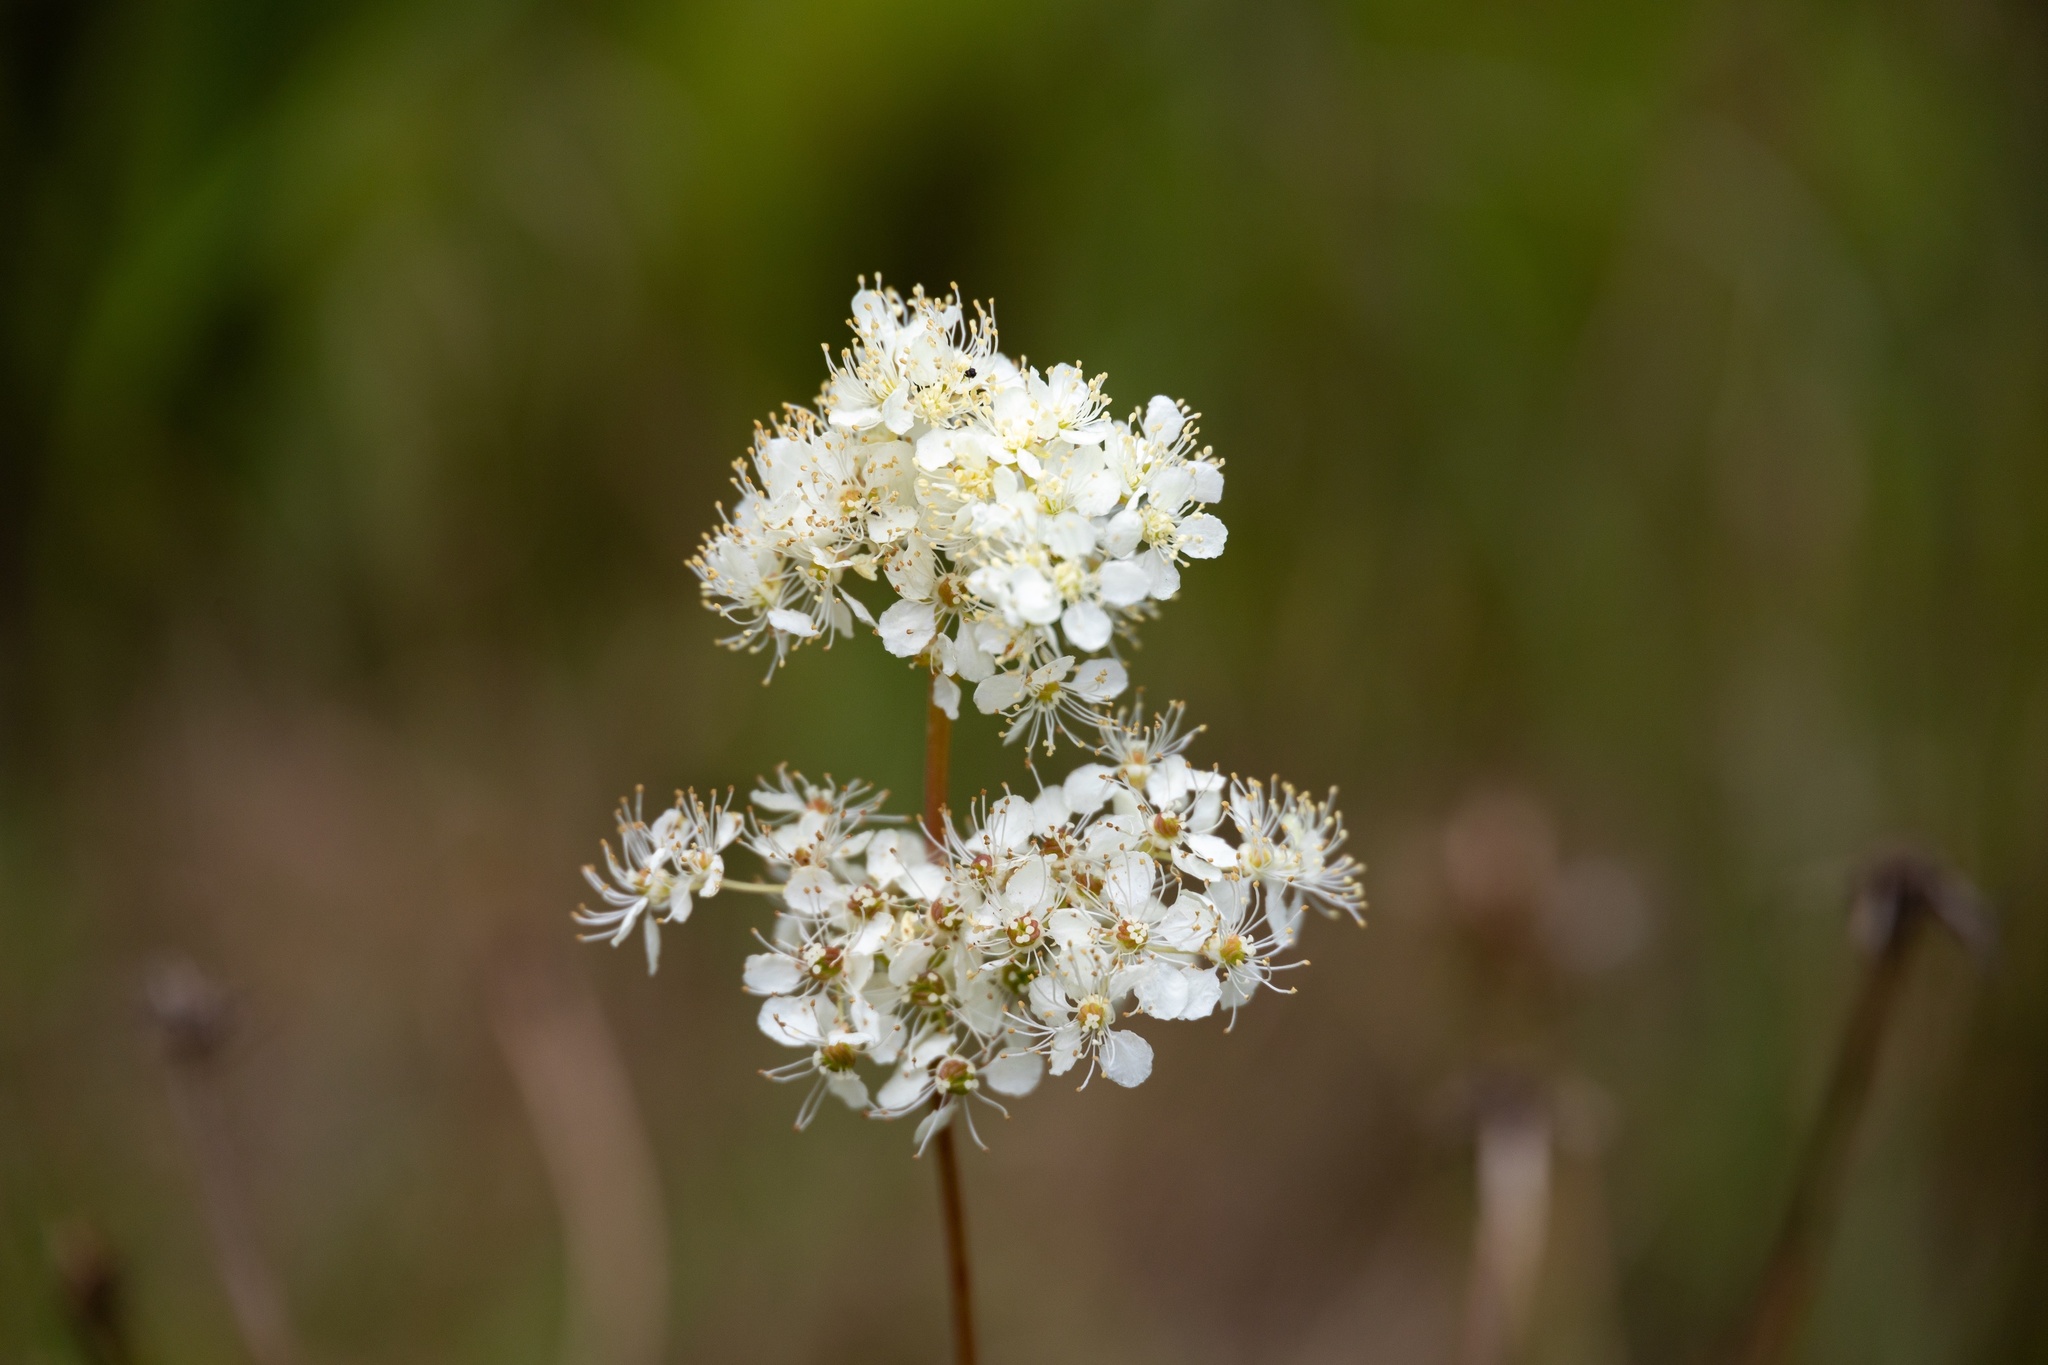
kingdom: Plantae
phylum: Tracheophyta
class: Magnoliopsida
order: Rosales
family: Rosaceae
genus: Filipendula
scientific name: Filipendula ulmaria
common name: Meadowsweet
